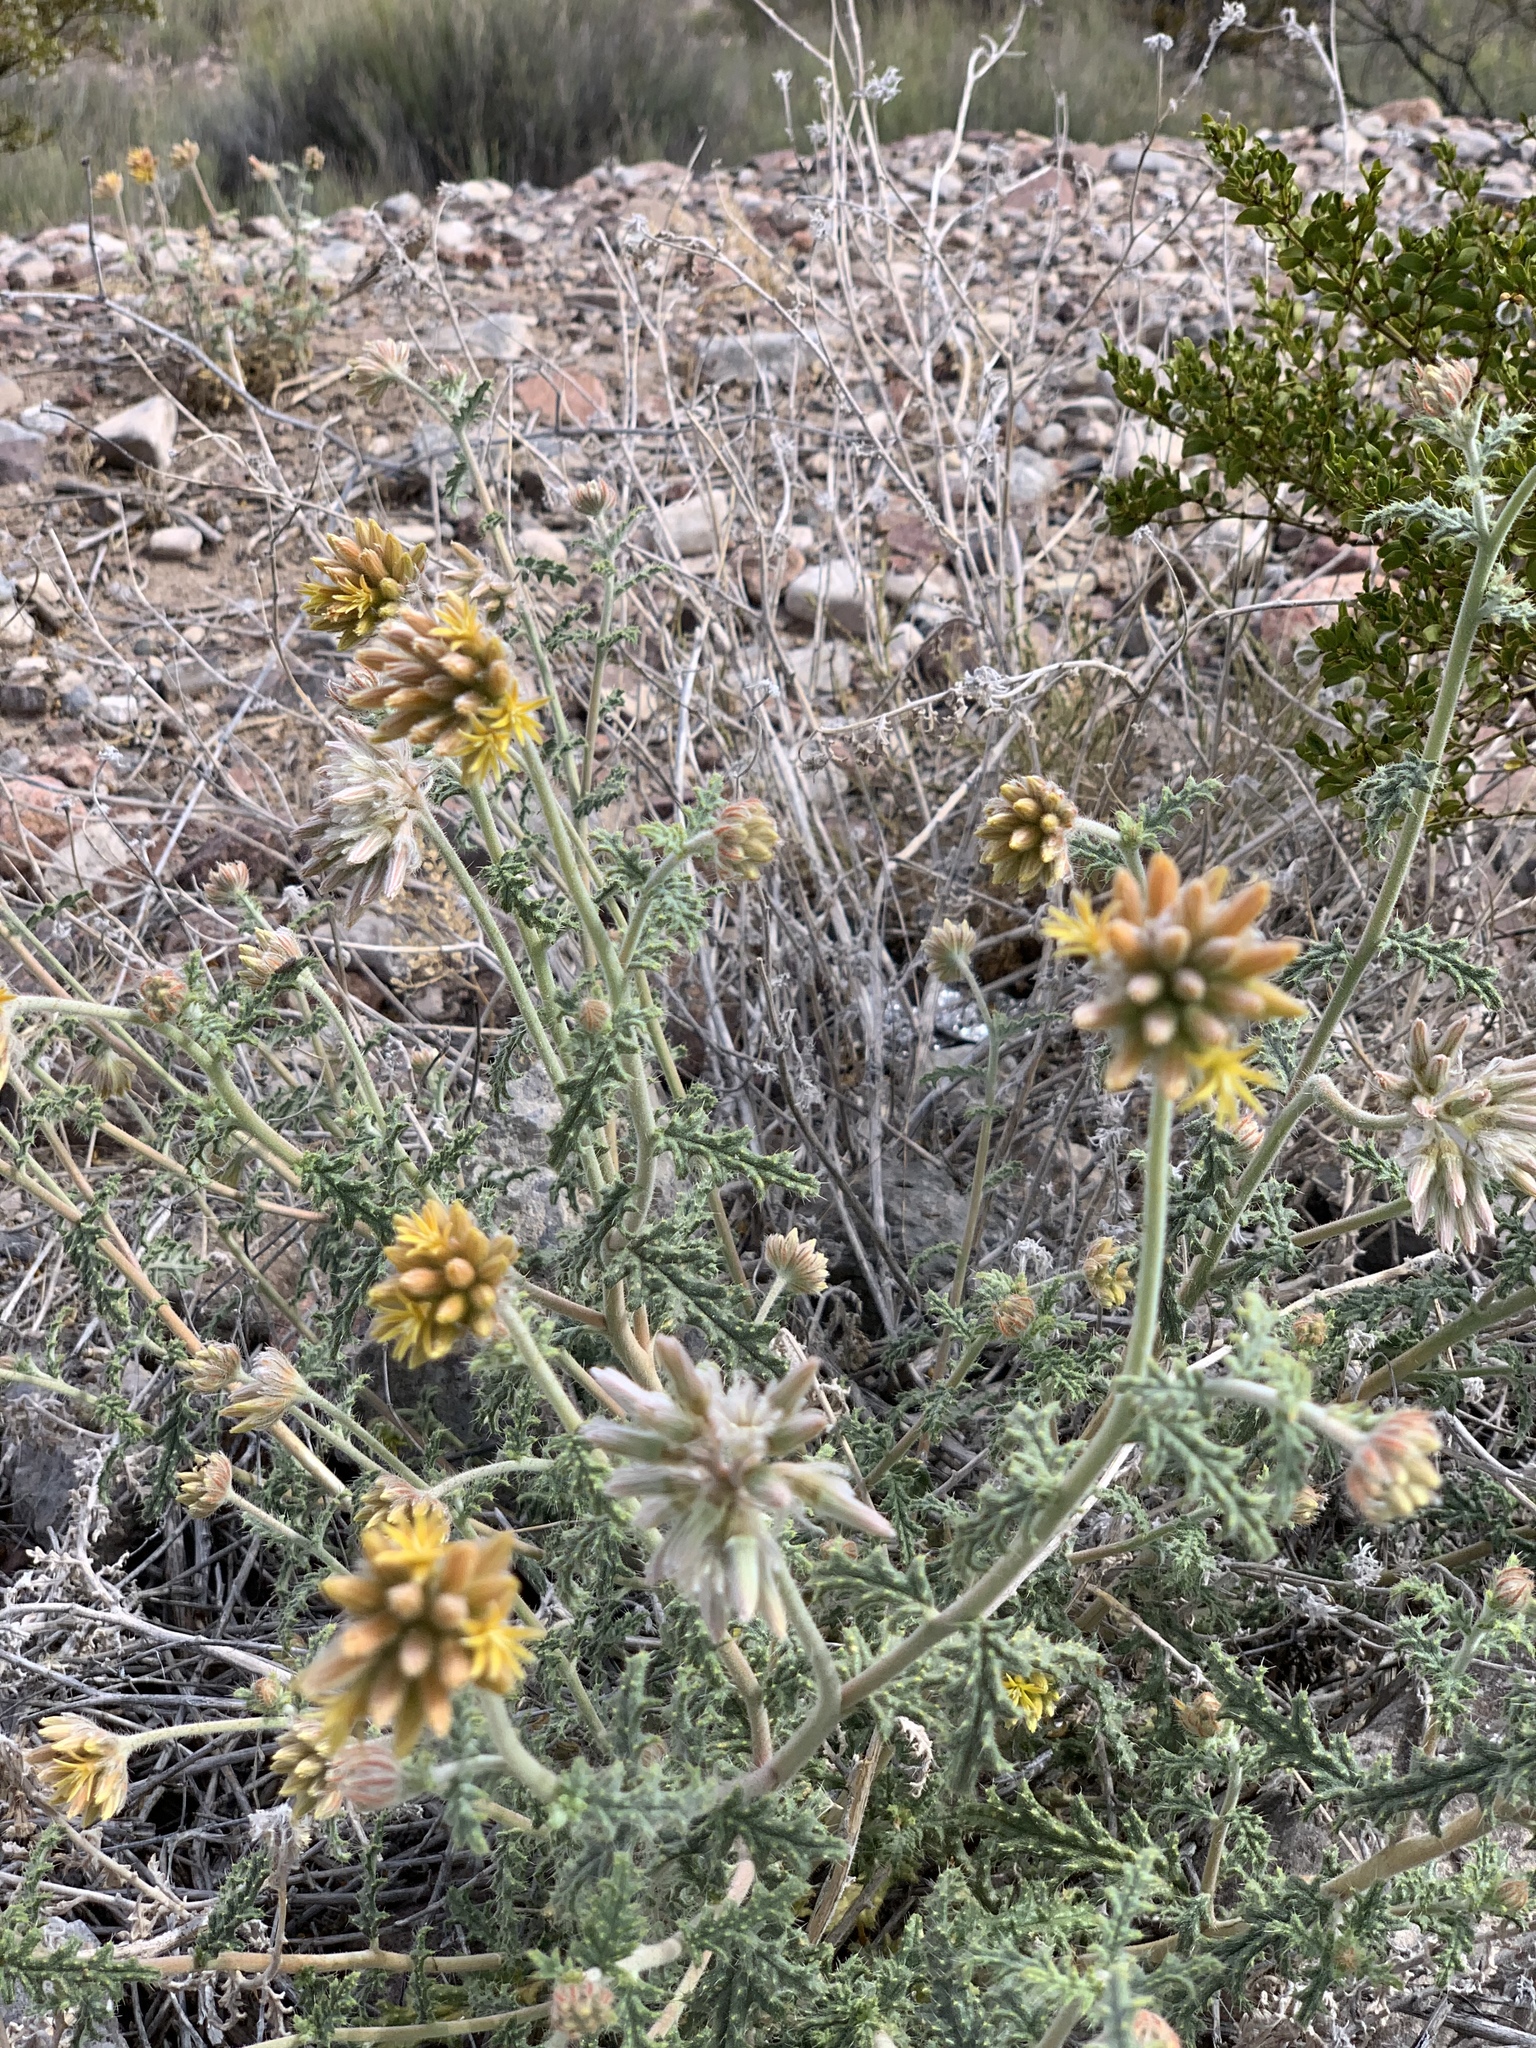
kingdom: Plantae
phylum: Tracheophyta
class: Magnoliopsida
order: Cornales
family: Loasaceae
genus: Cevallia
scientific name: Cevallia sinuata
